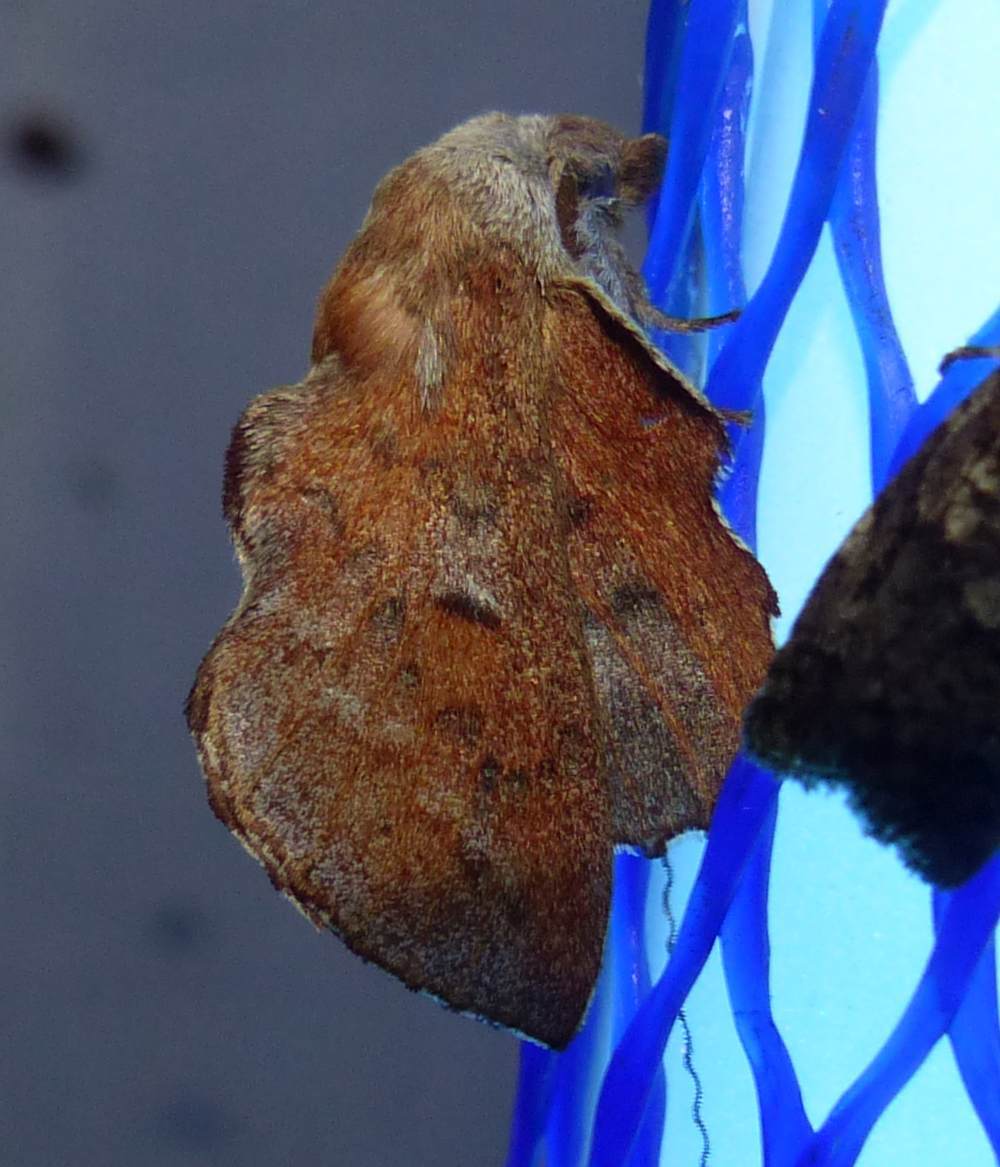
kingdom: Animalia
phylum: Arthropoda
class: Insecta
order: Lepidoptera
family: Lasiocampidae
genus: Phyllodesma
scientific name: Phyllodesma americana
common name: American lappet moth
